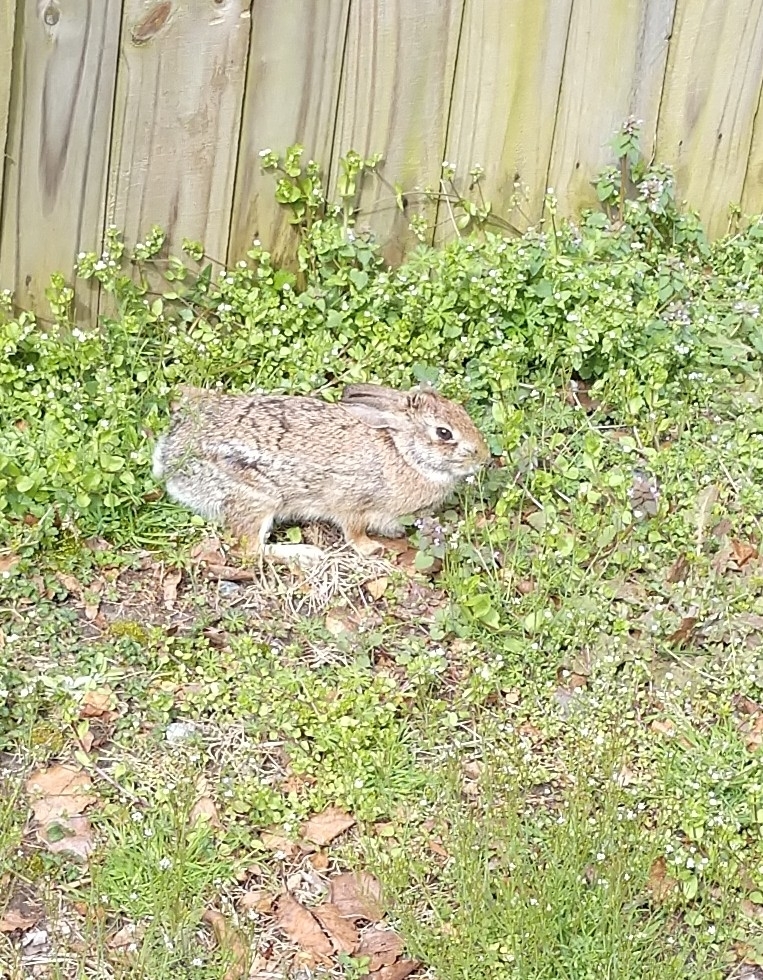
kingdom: Animalia
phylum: Chordata
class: Mammalia
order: Lagomorpha
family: Leporidae
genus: Sylvilagus
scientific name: Sylvilagus floridanus
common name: Eastern cottontail
